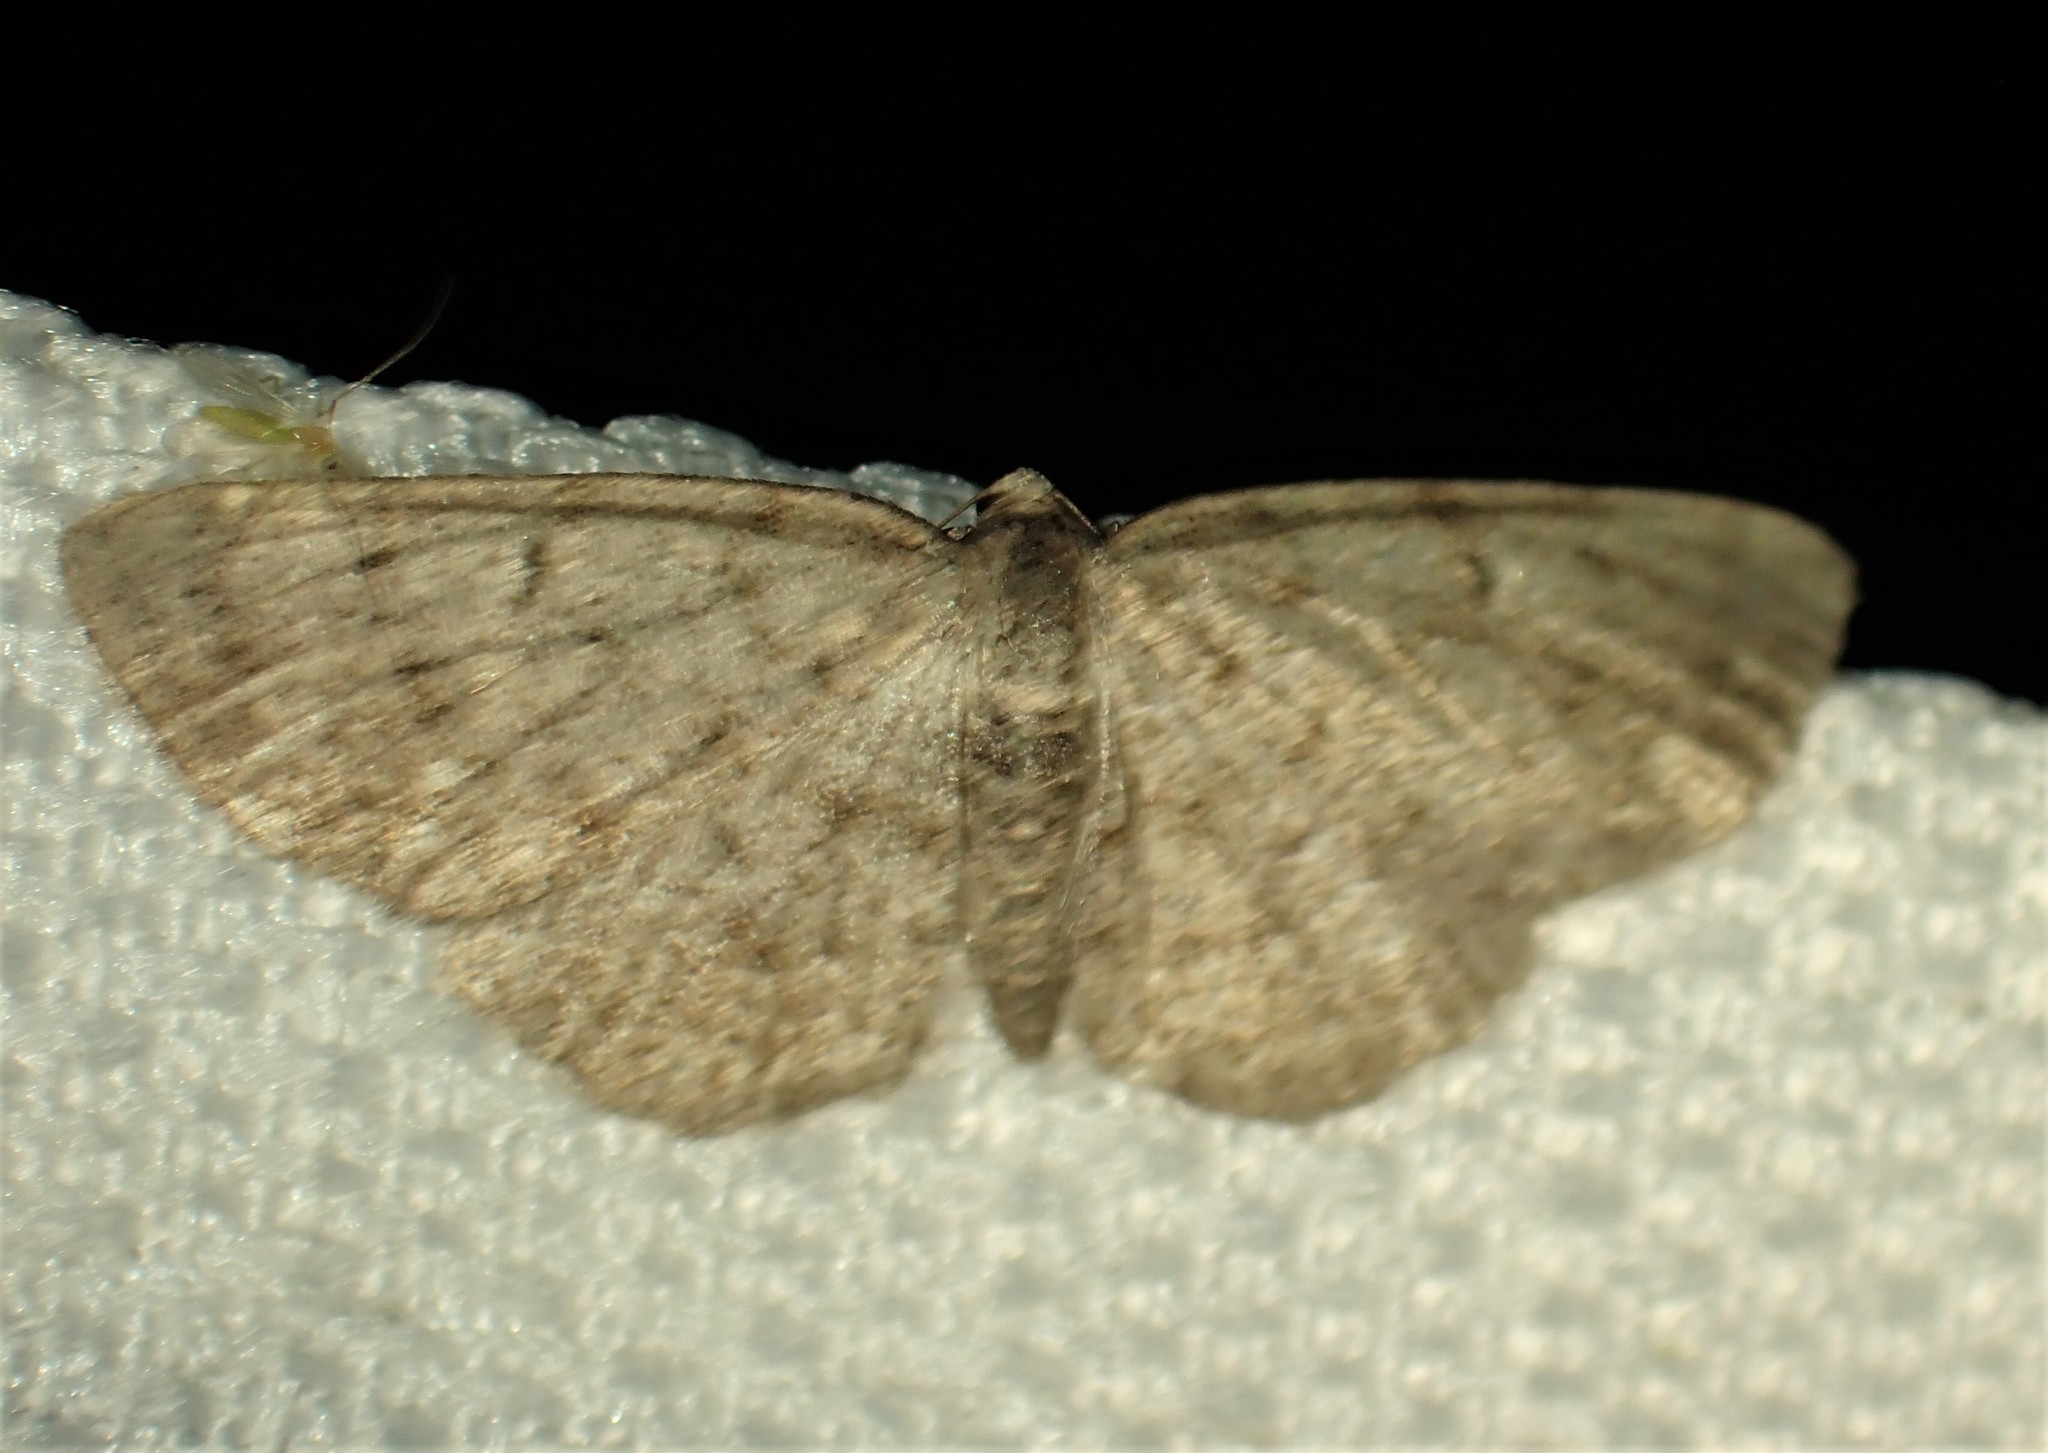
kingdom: Animalia
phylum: Arthropoda
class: Insecta
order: Lepidoptera
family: Geometridae
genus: Aethalura
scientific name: Aethalura intertexta
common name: Four-barred gray
